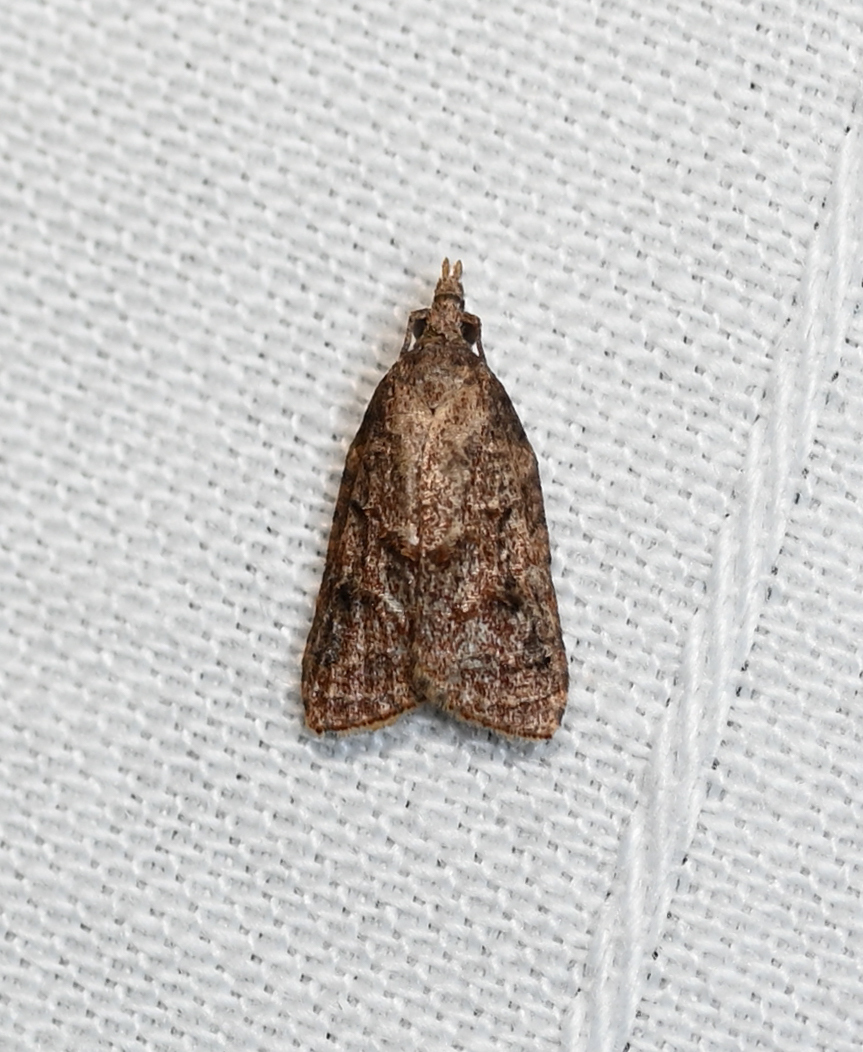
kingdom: Animalia
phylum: Arthropoda
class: Insecta
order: Lepidoptera
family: Tortricidae
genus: Platynota
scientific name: Platynota idaeusalis
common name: Tufted apple bud moth
